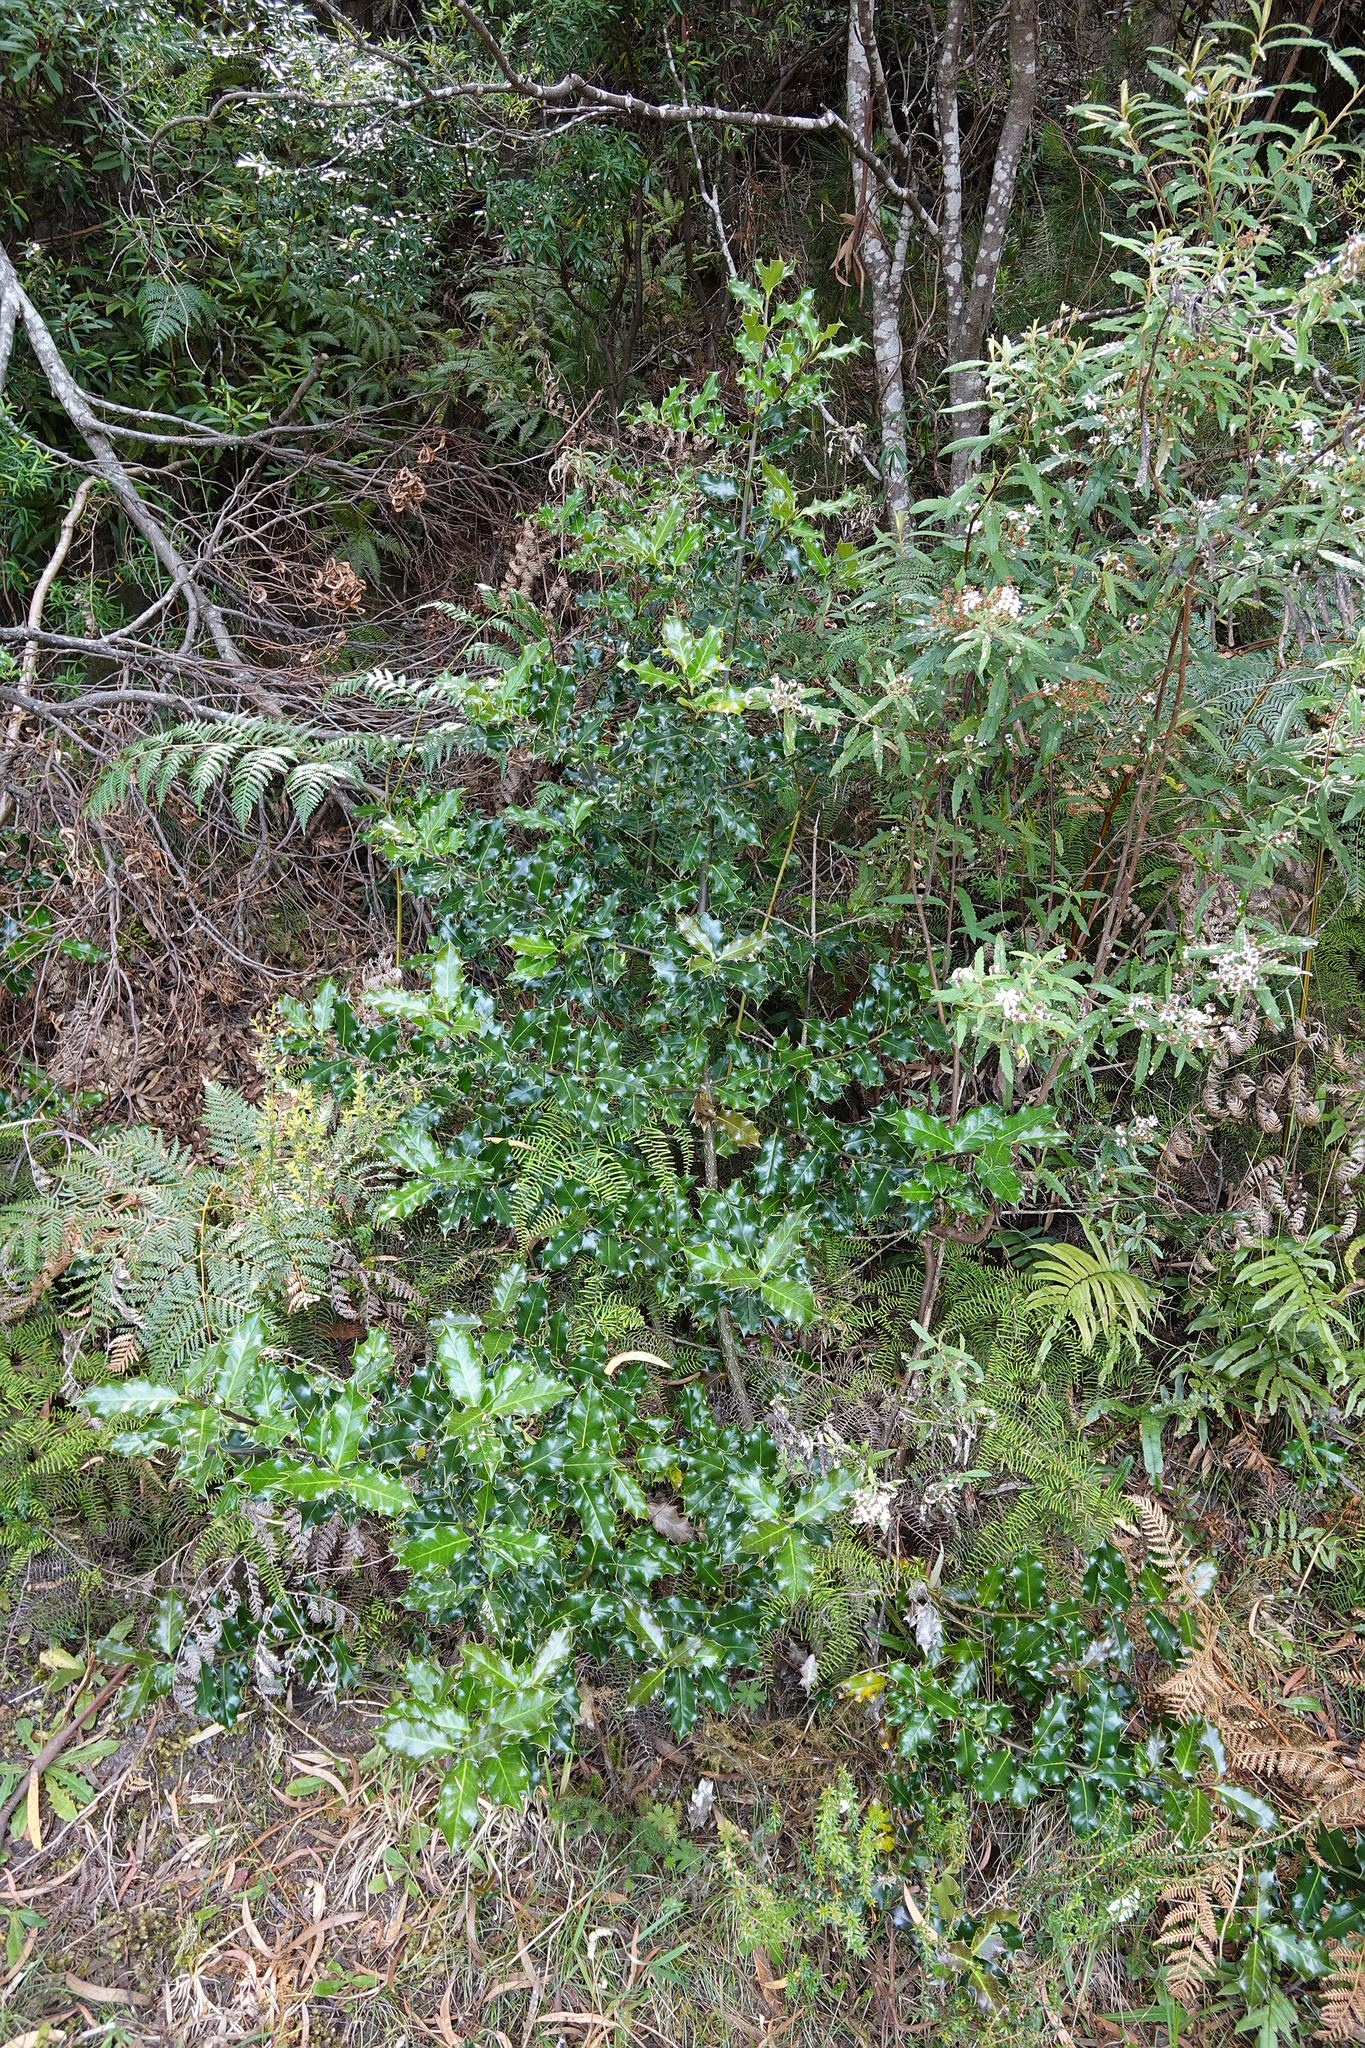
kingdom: Plantae
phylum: Tracheophyta
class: Magnoliopsida
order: Aquifoliales
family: Aquifoliaceae
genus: Ilex
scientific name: Ilex aquifolium
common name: English holly
